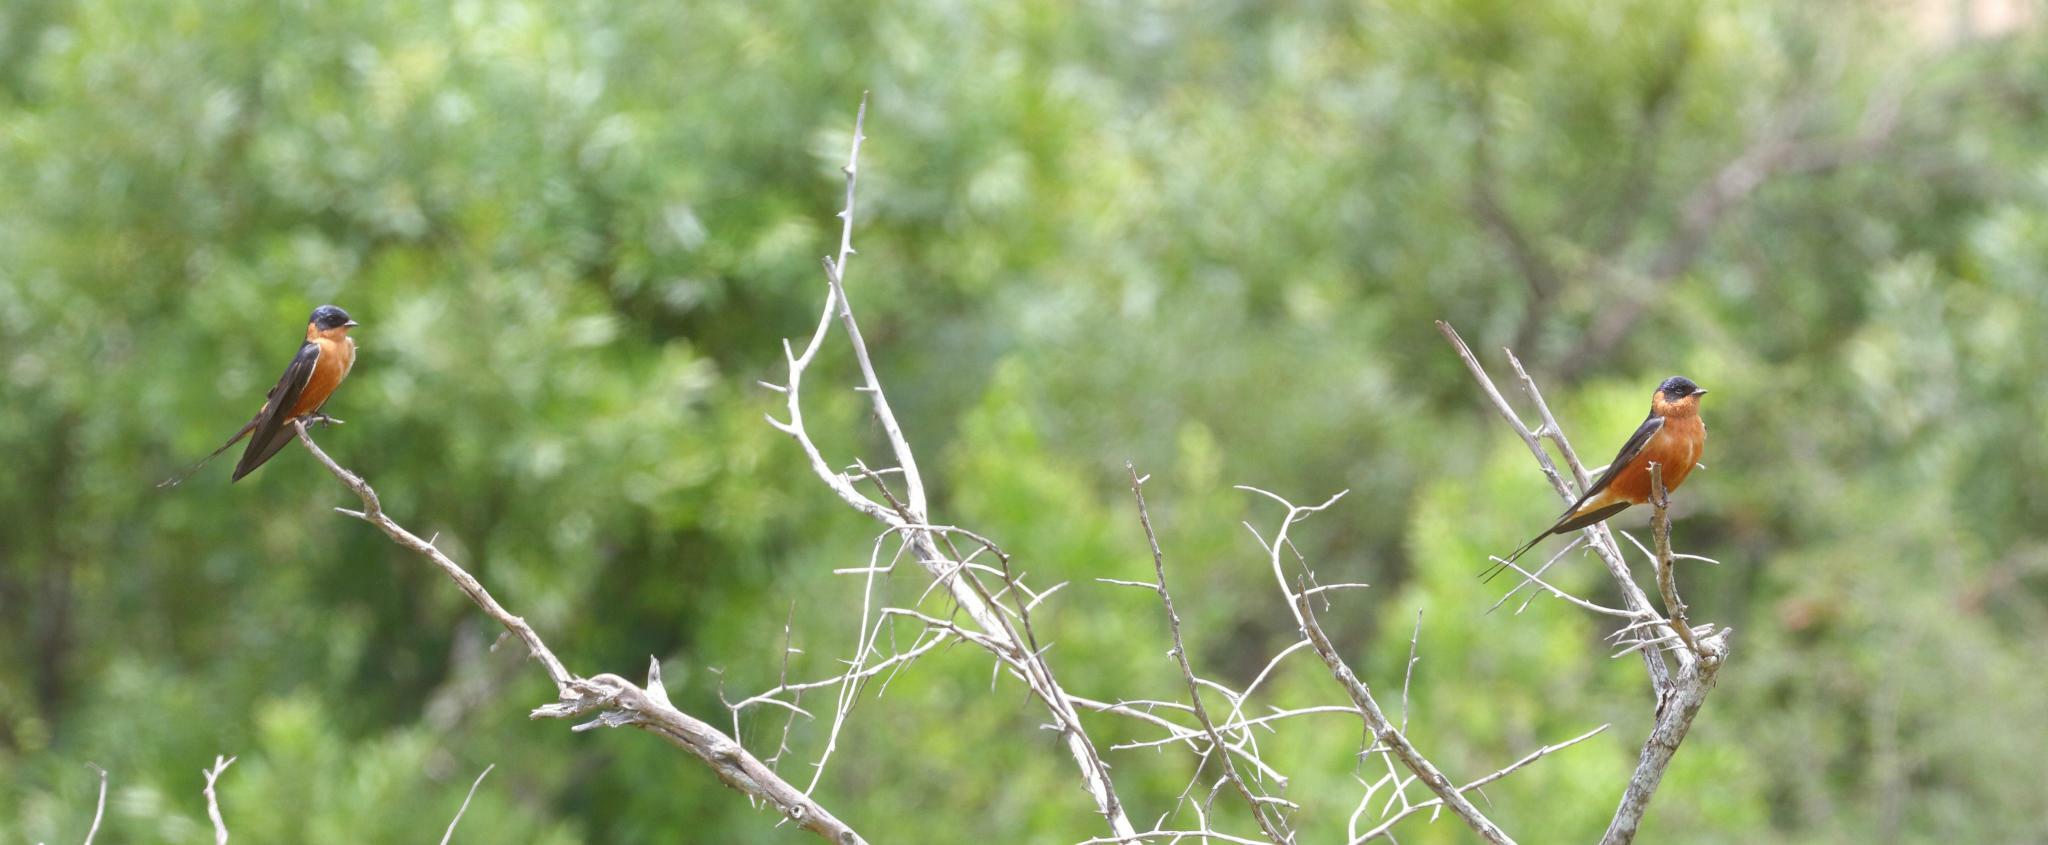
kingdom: Animalia
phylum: Chordata
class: Aves
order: Passeriformes
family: Hirundinidae
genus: Cecropis
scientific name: Cecropis semirufa
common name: Red-breasted swallow
